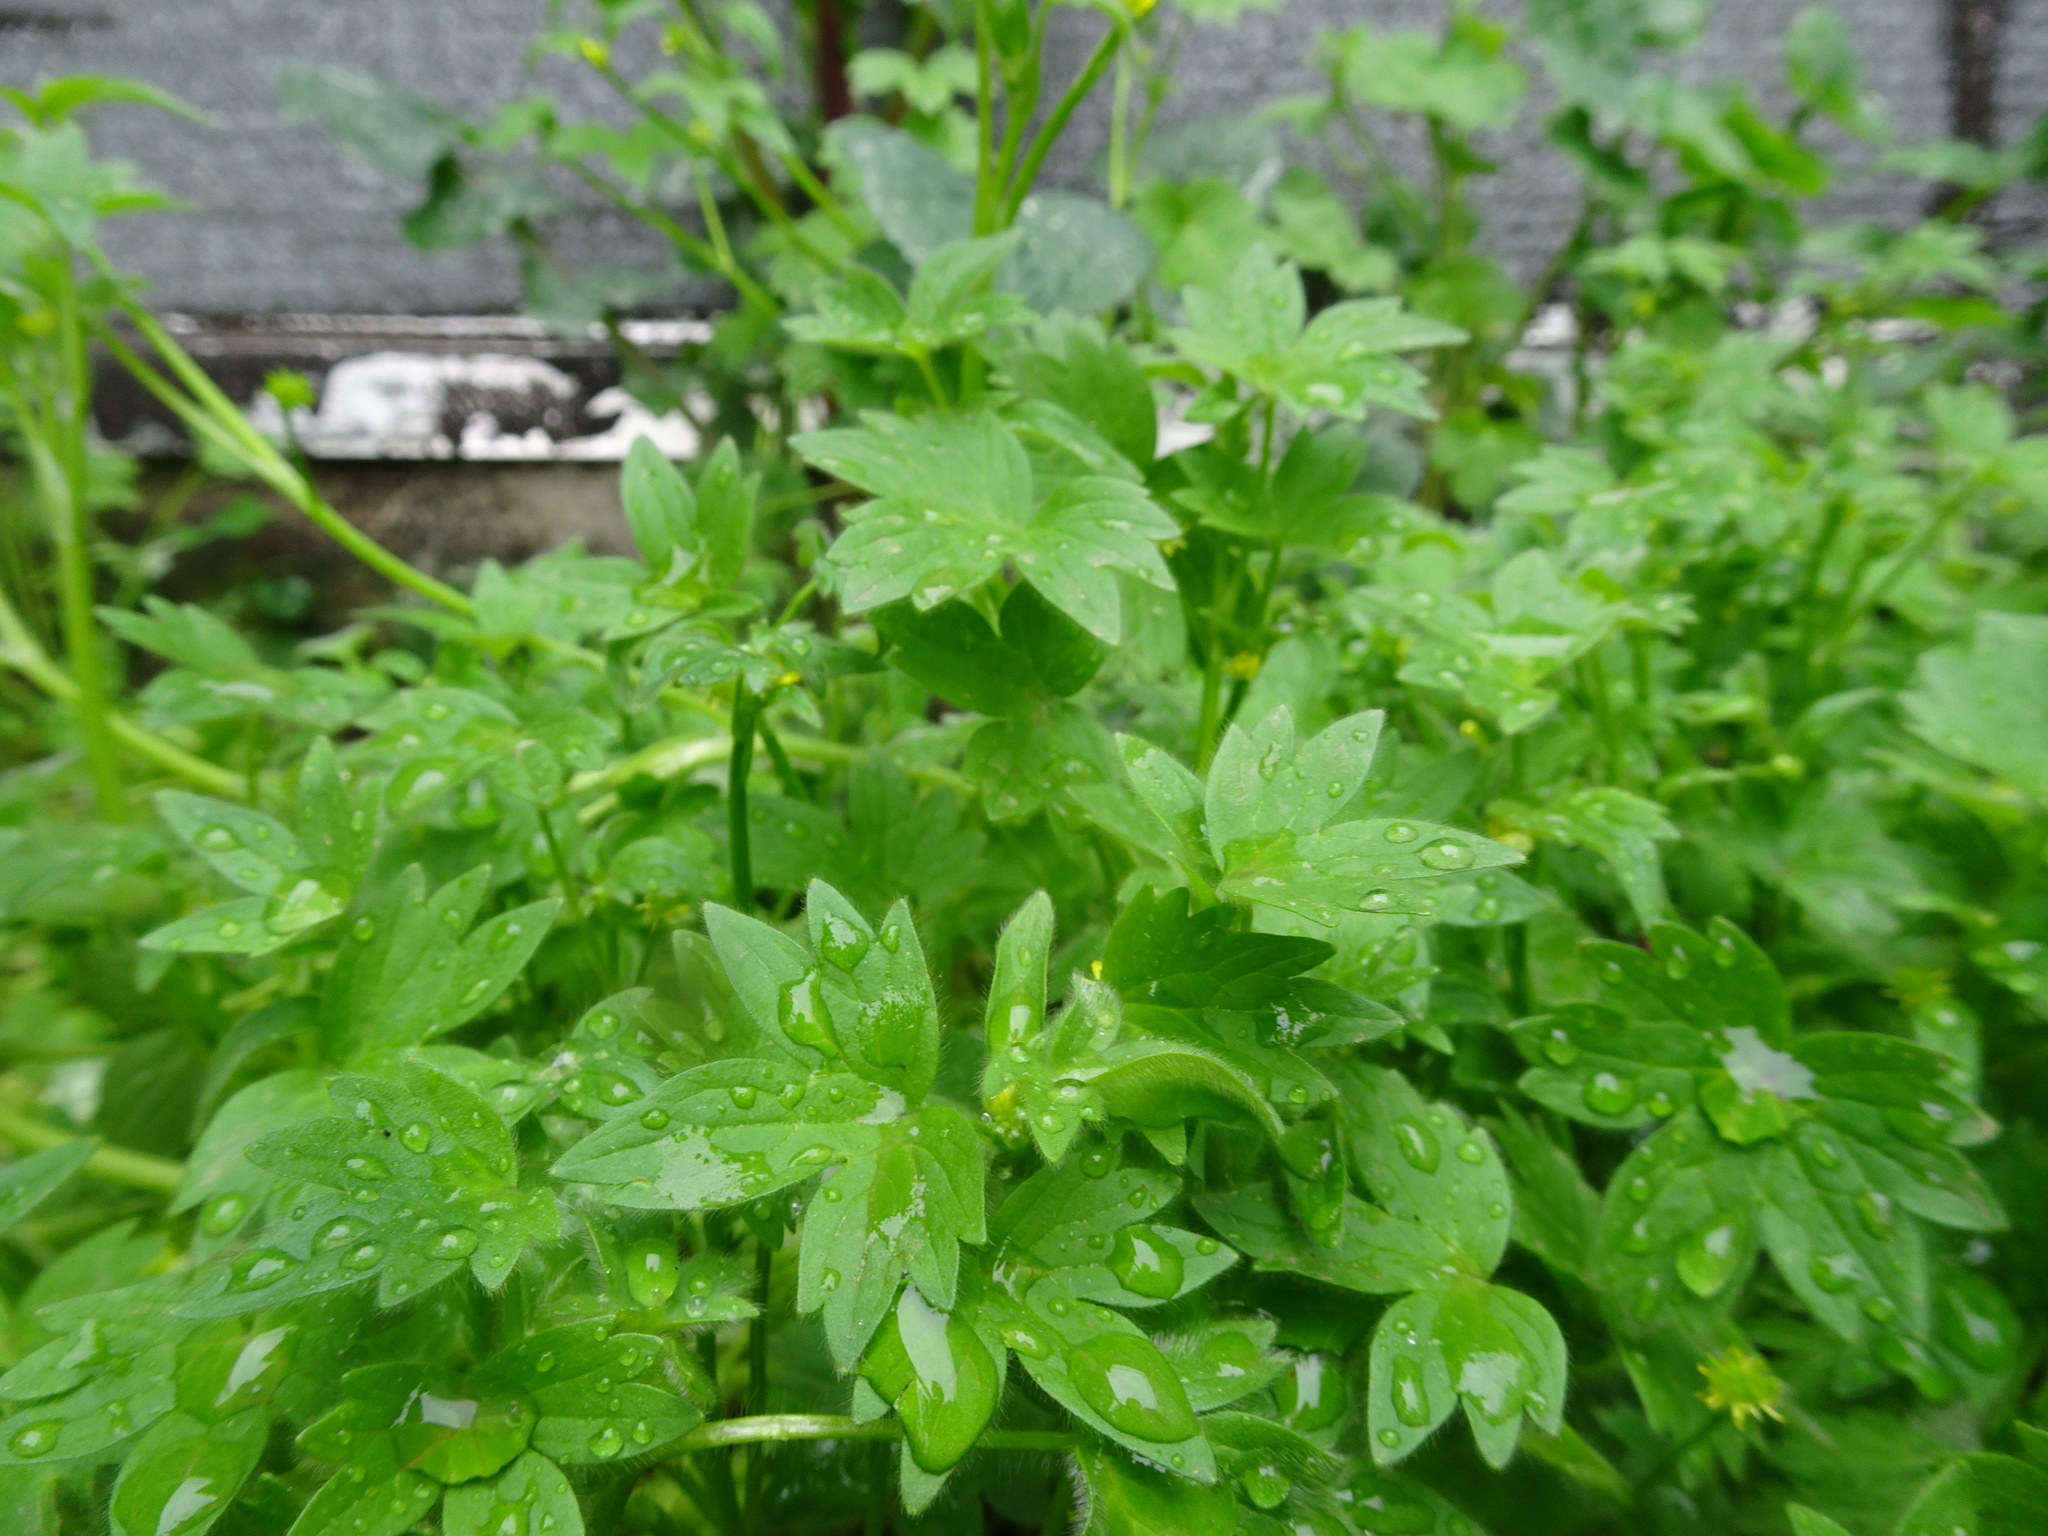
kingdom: Plantae
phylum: Tracheophyta
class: Magnoliopsida
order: Ranunculales
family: Ranunculaceae
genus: Ranunculus
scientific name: Ranunculus parviflorus
